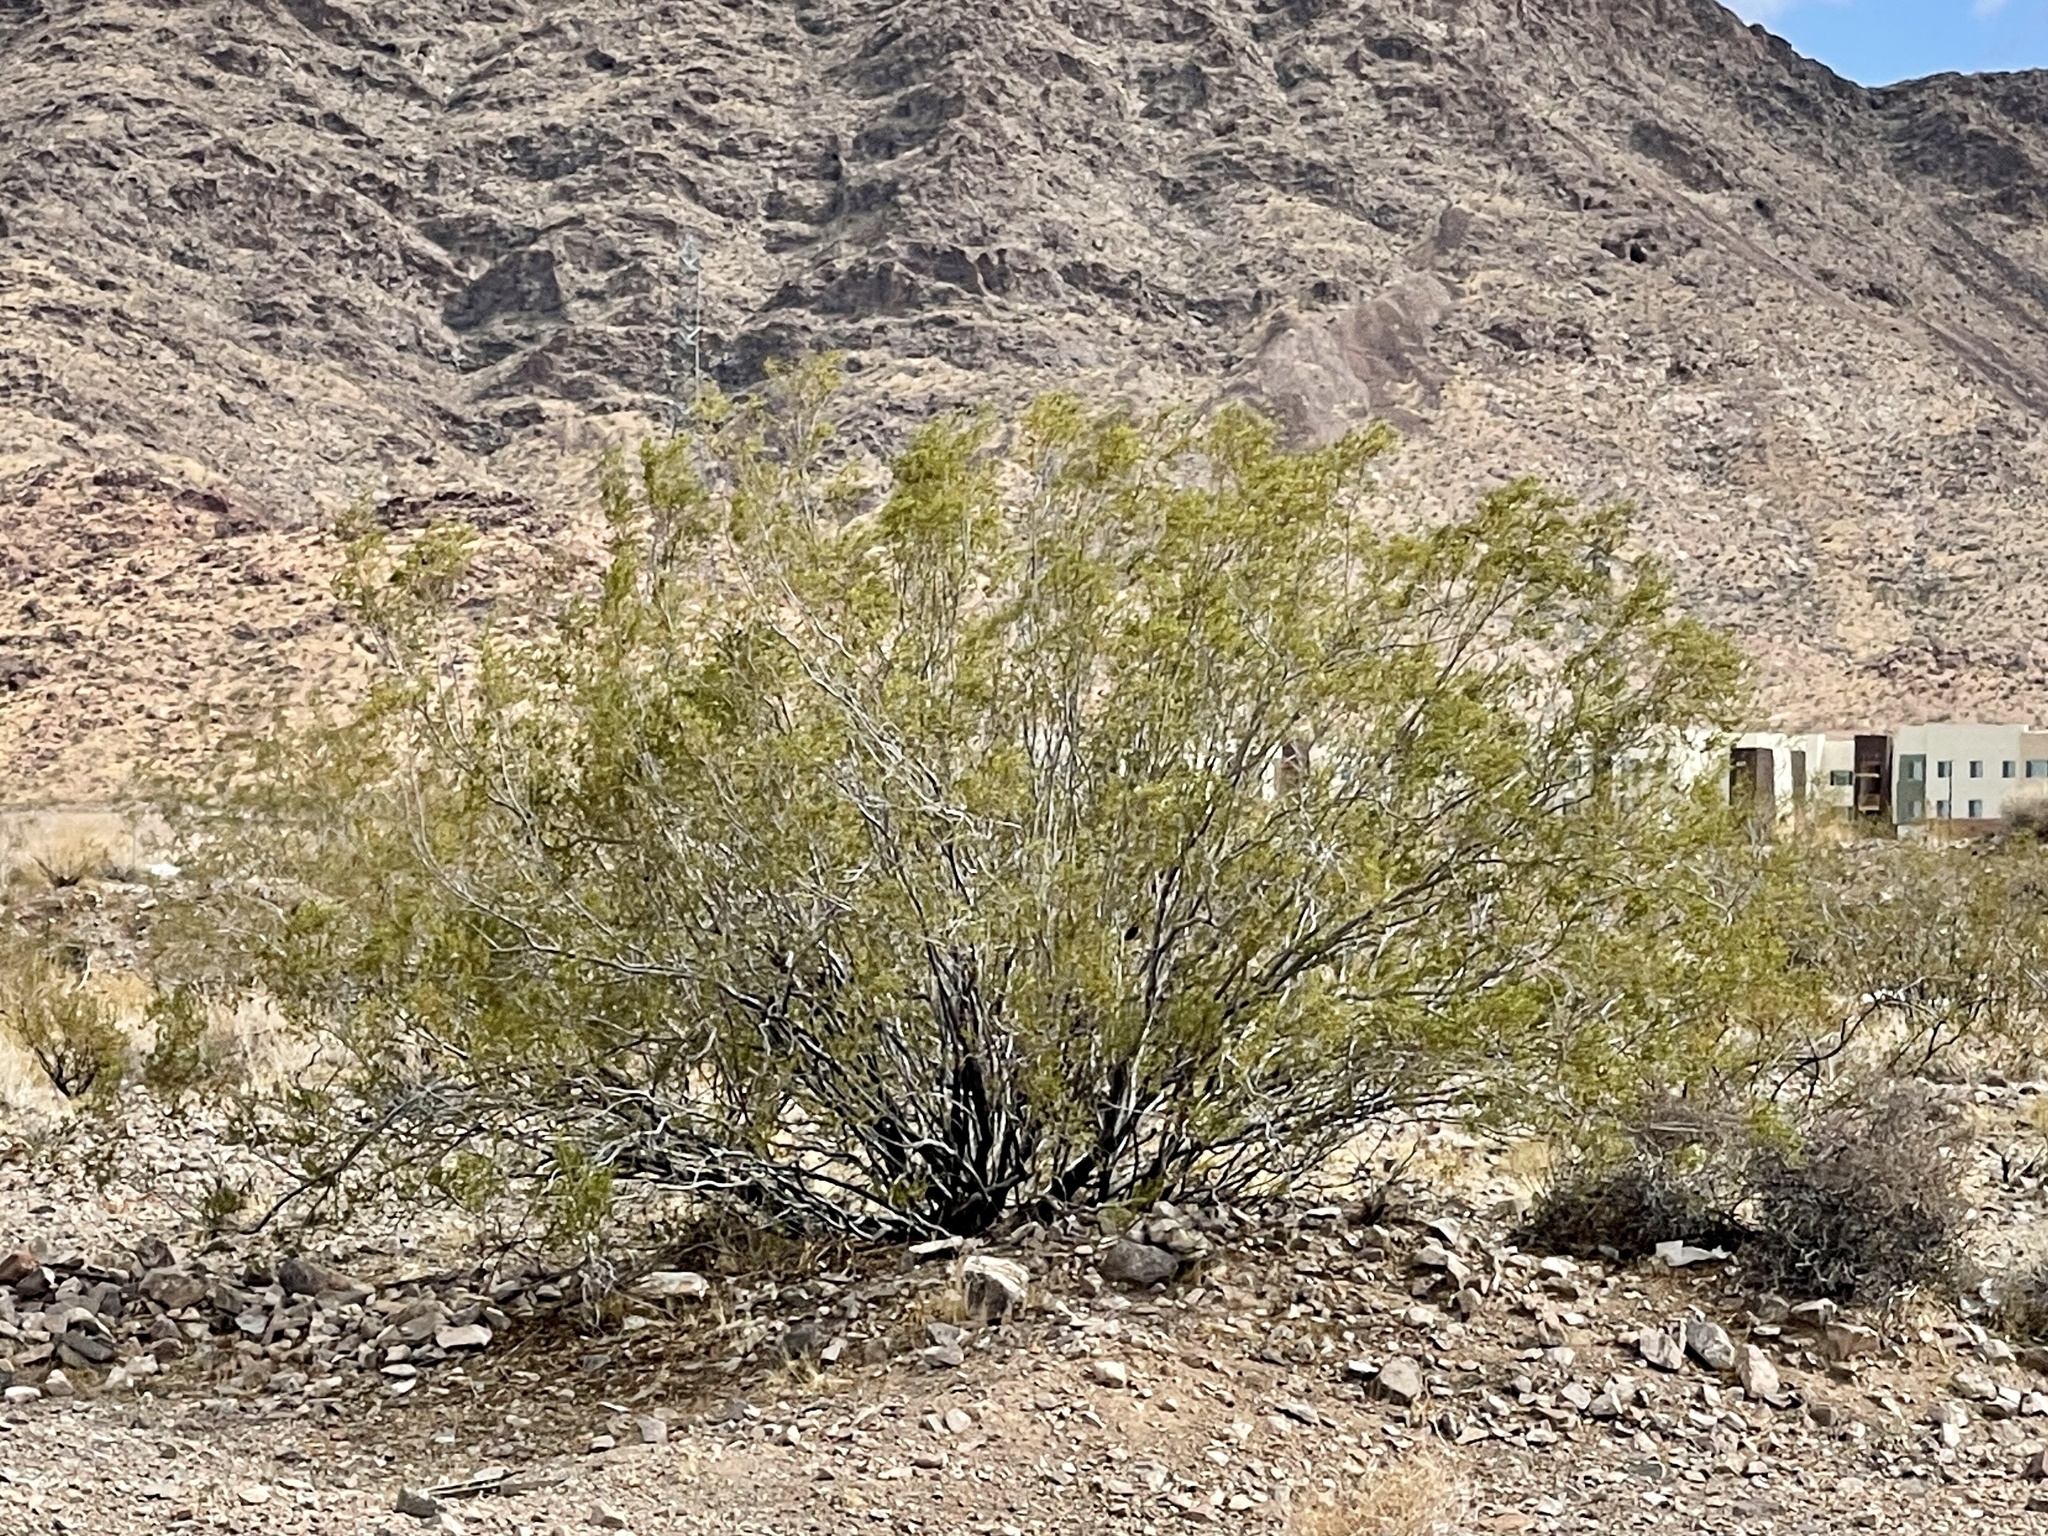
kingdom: Plantae
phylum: Tracheophyta
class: Magnoliopsida
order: Zygophyllales
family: Zygophyllaceae
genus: Larrea
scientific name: Larrea tridentata
